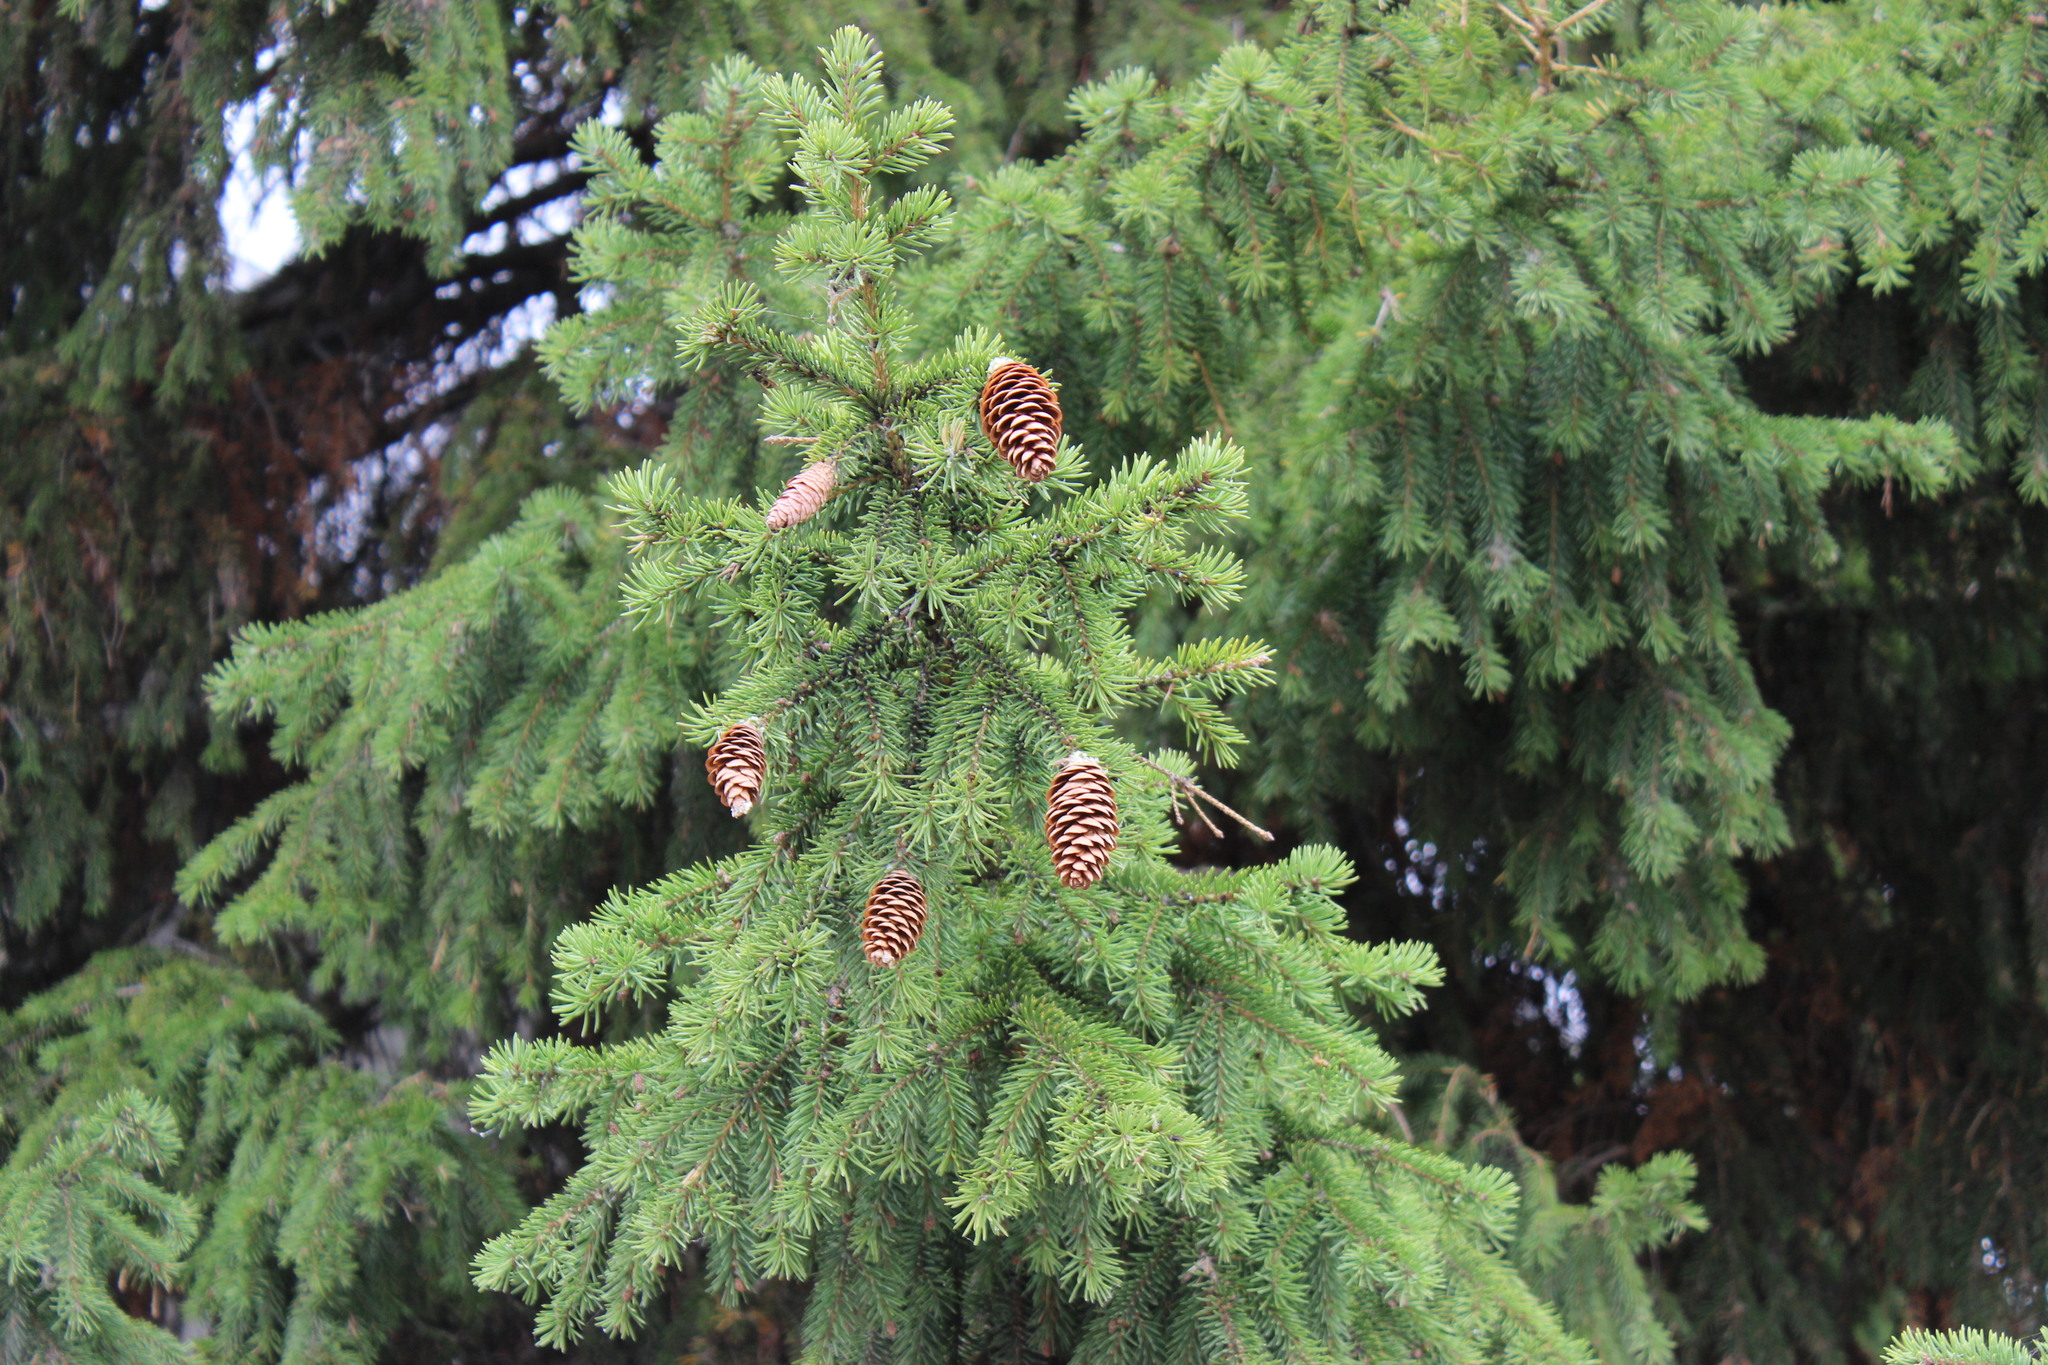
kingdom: Plantae
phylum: Tracheophyta
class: Pinopsida
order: Pinales
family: Pinaceae
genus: Picea
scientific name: Picea obovata
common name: Siberian spruce
